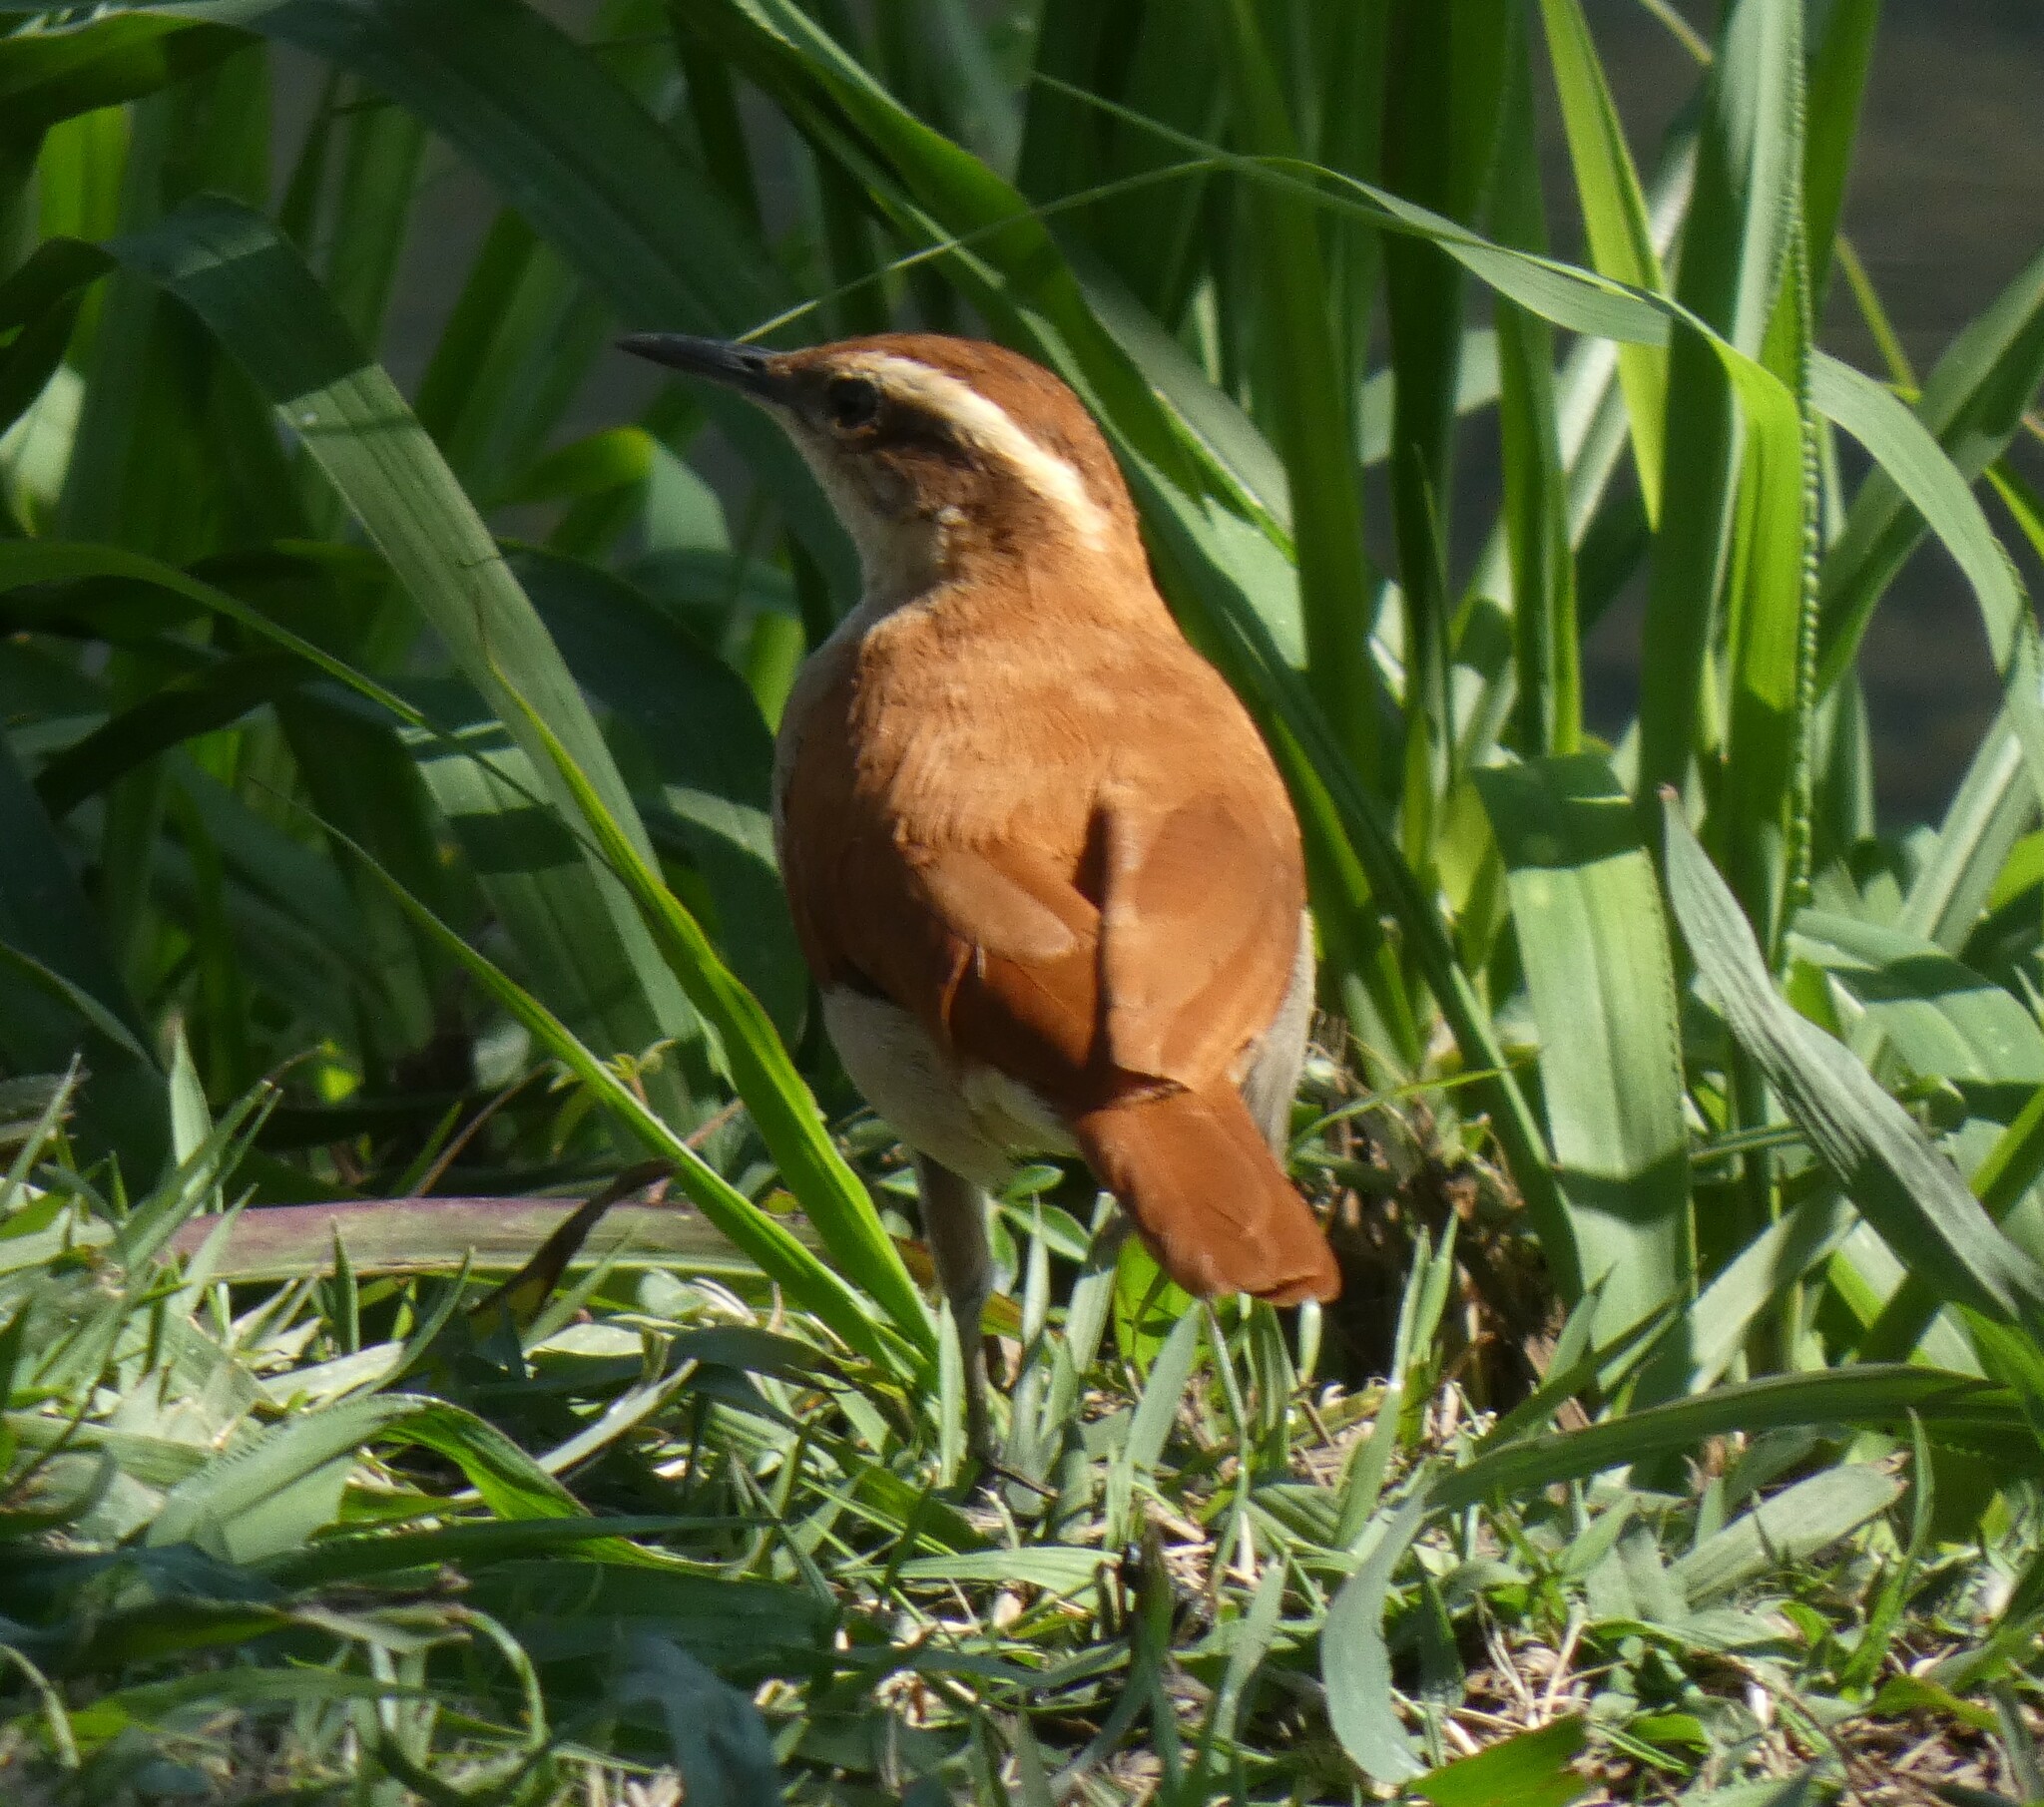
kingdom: Animalia
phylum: Chordata
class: Aves
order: Passeriformes
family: Furnariidae
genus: Furnarius
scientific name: Furnarius figulus
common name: Band-tailed hornero
